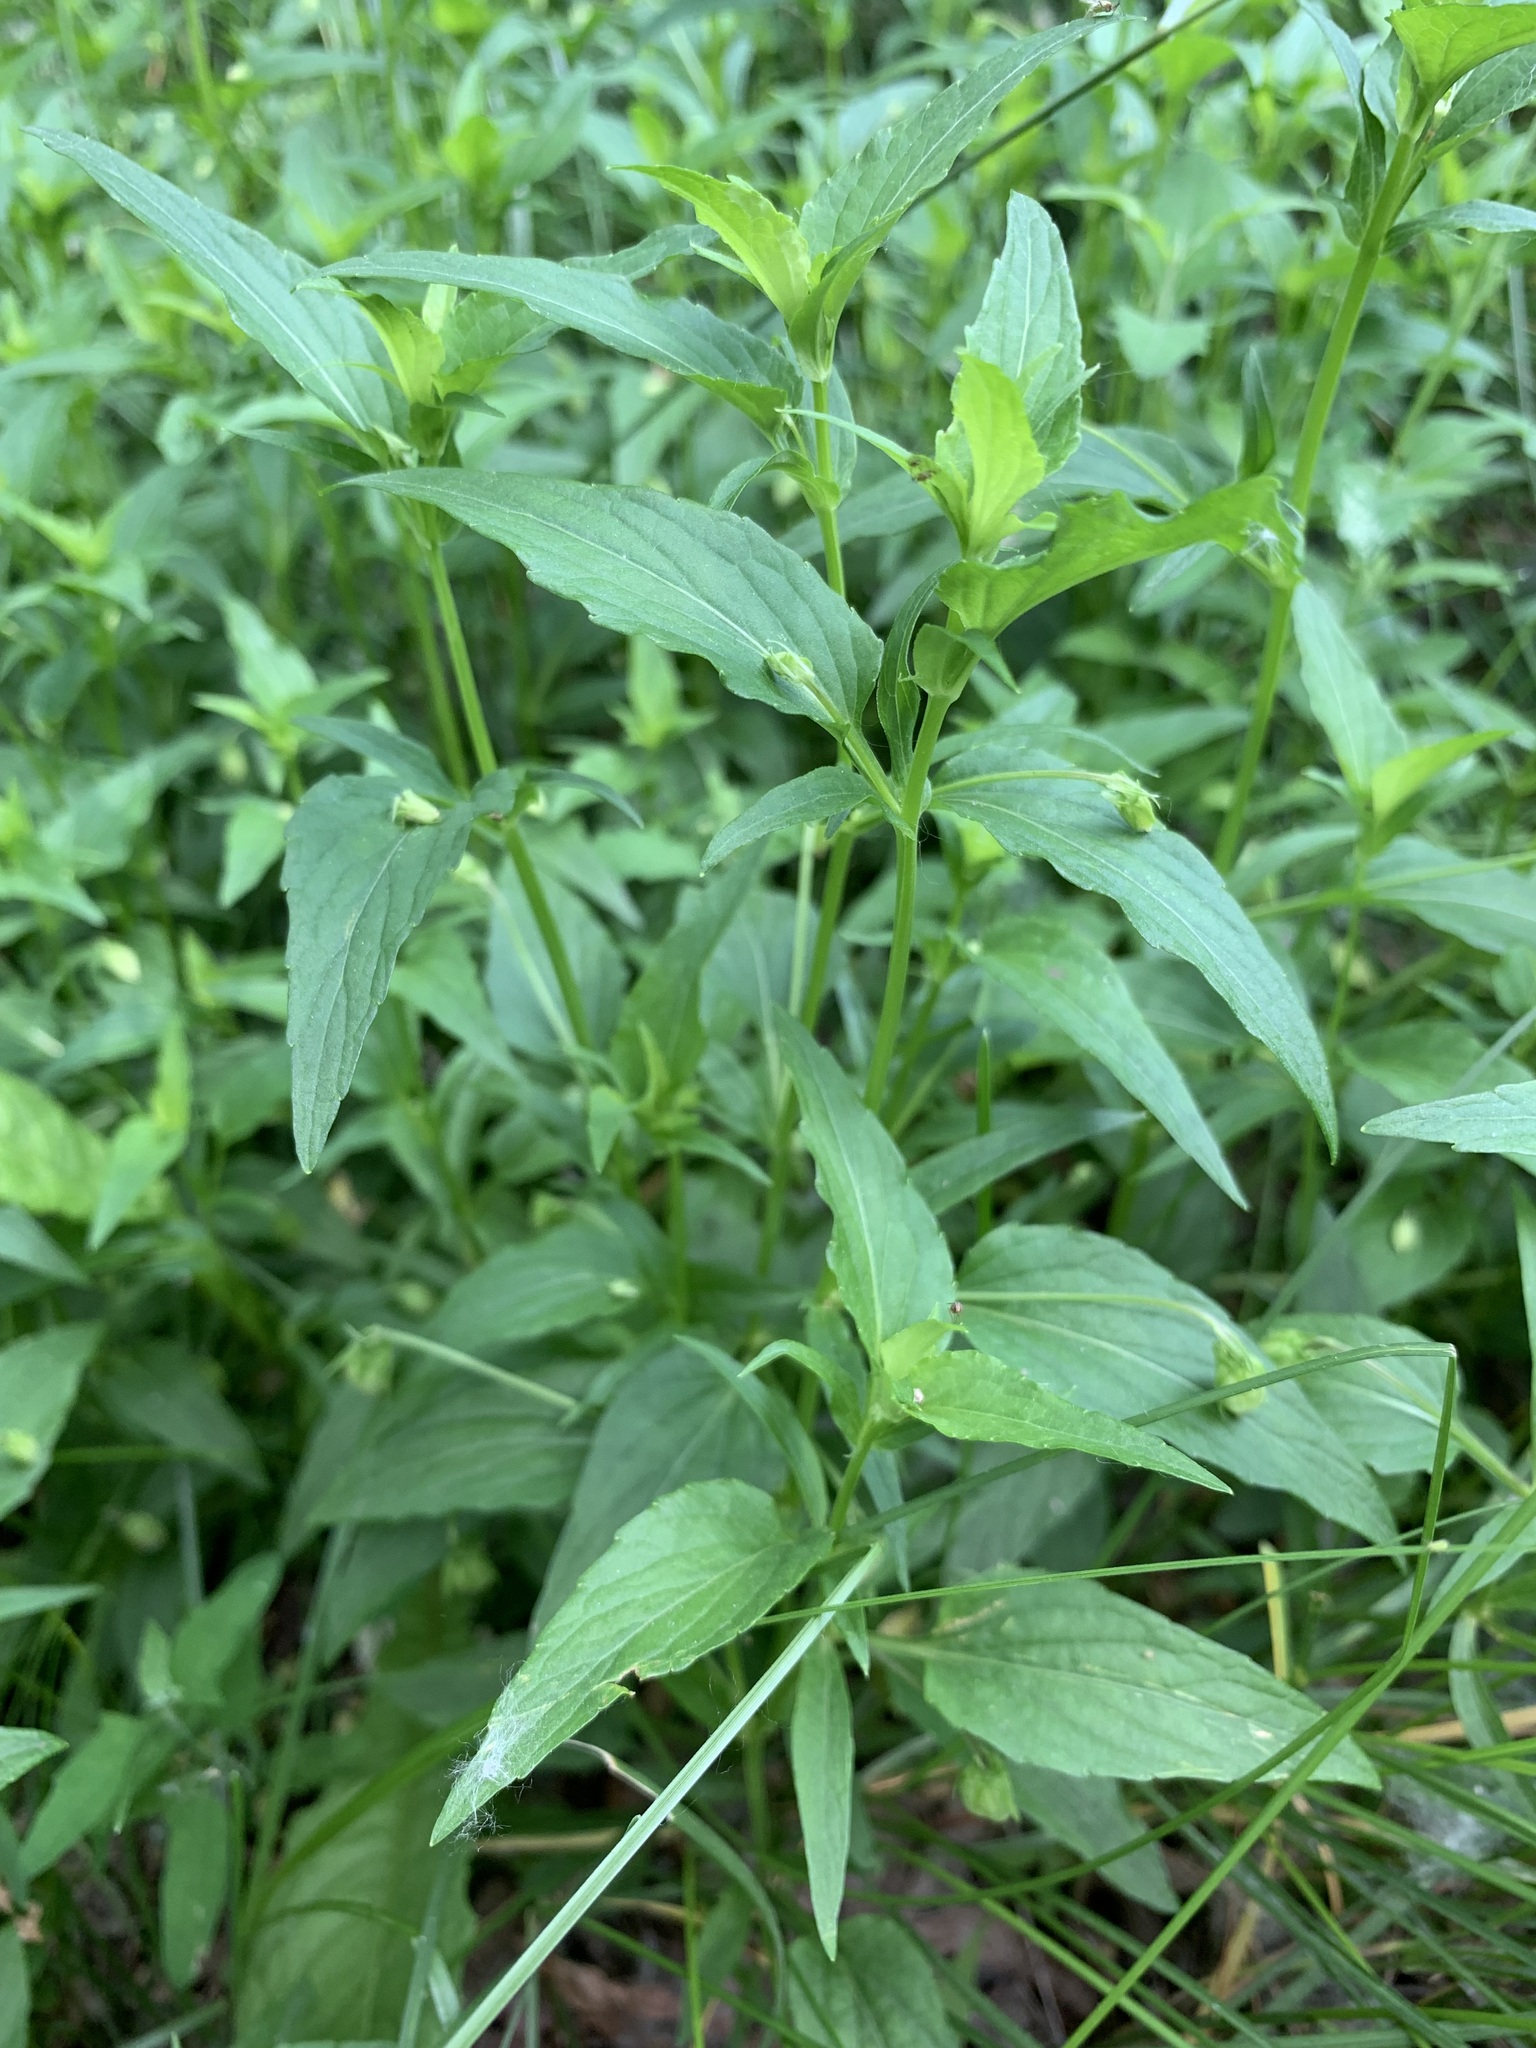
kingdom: Plantae
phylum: Tracheophyta
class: Magnoliopsida
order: Malpighiales
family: Violaceae
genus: Viola
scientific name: Viola elatior
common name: Tall violet
